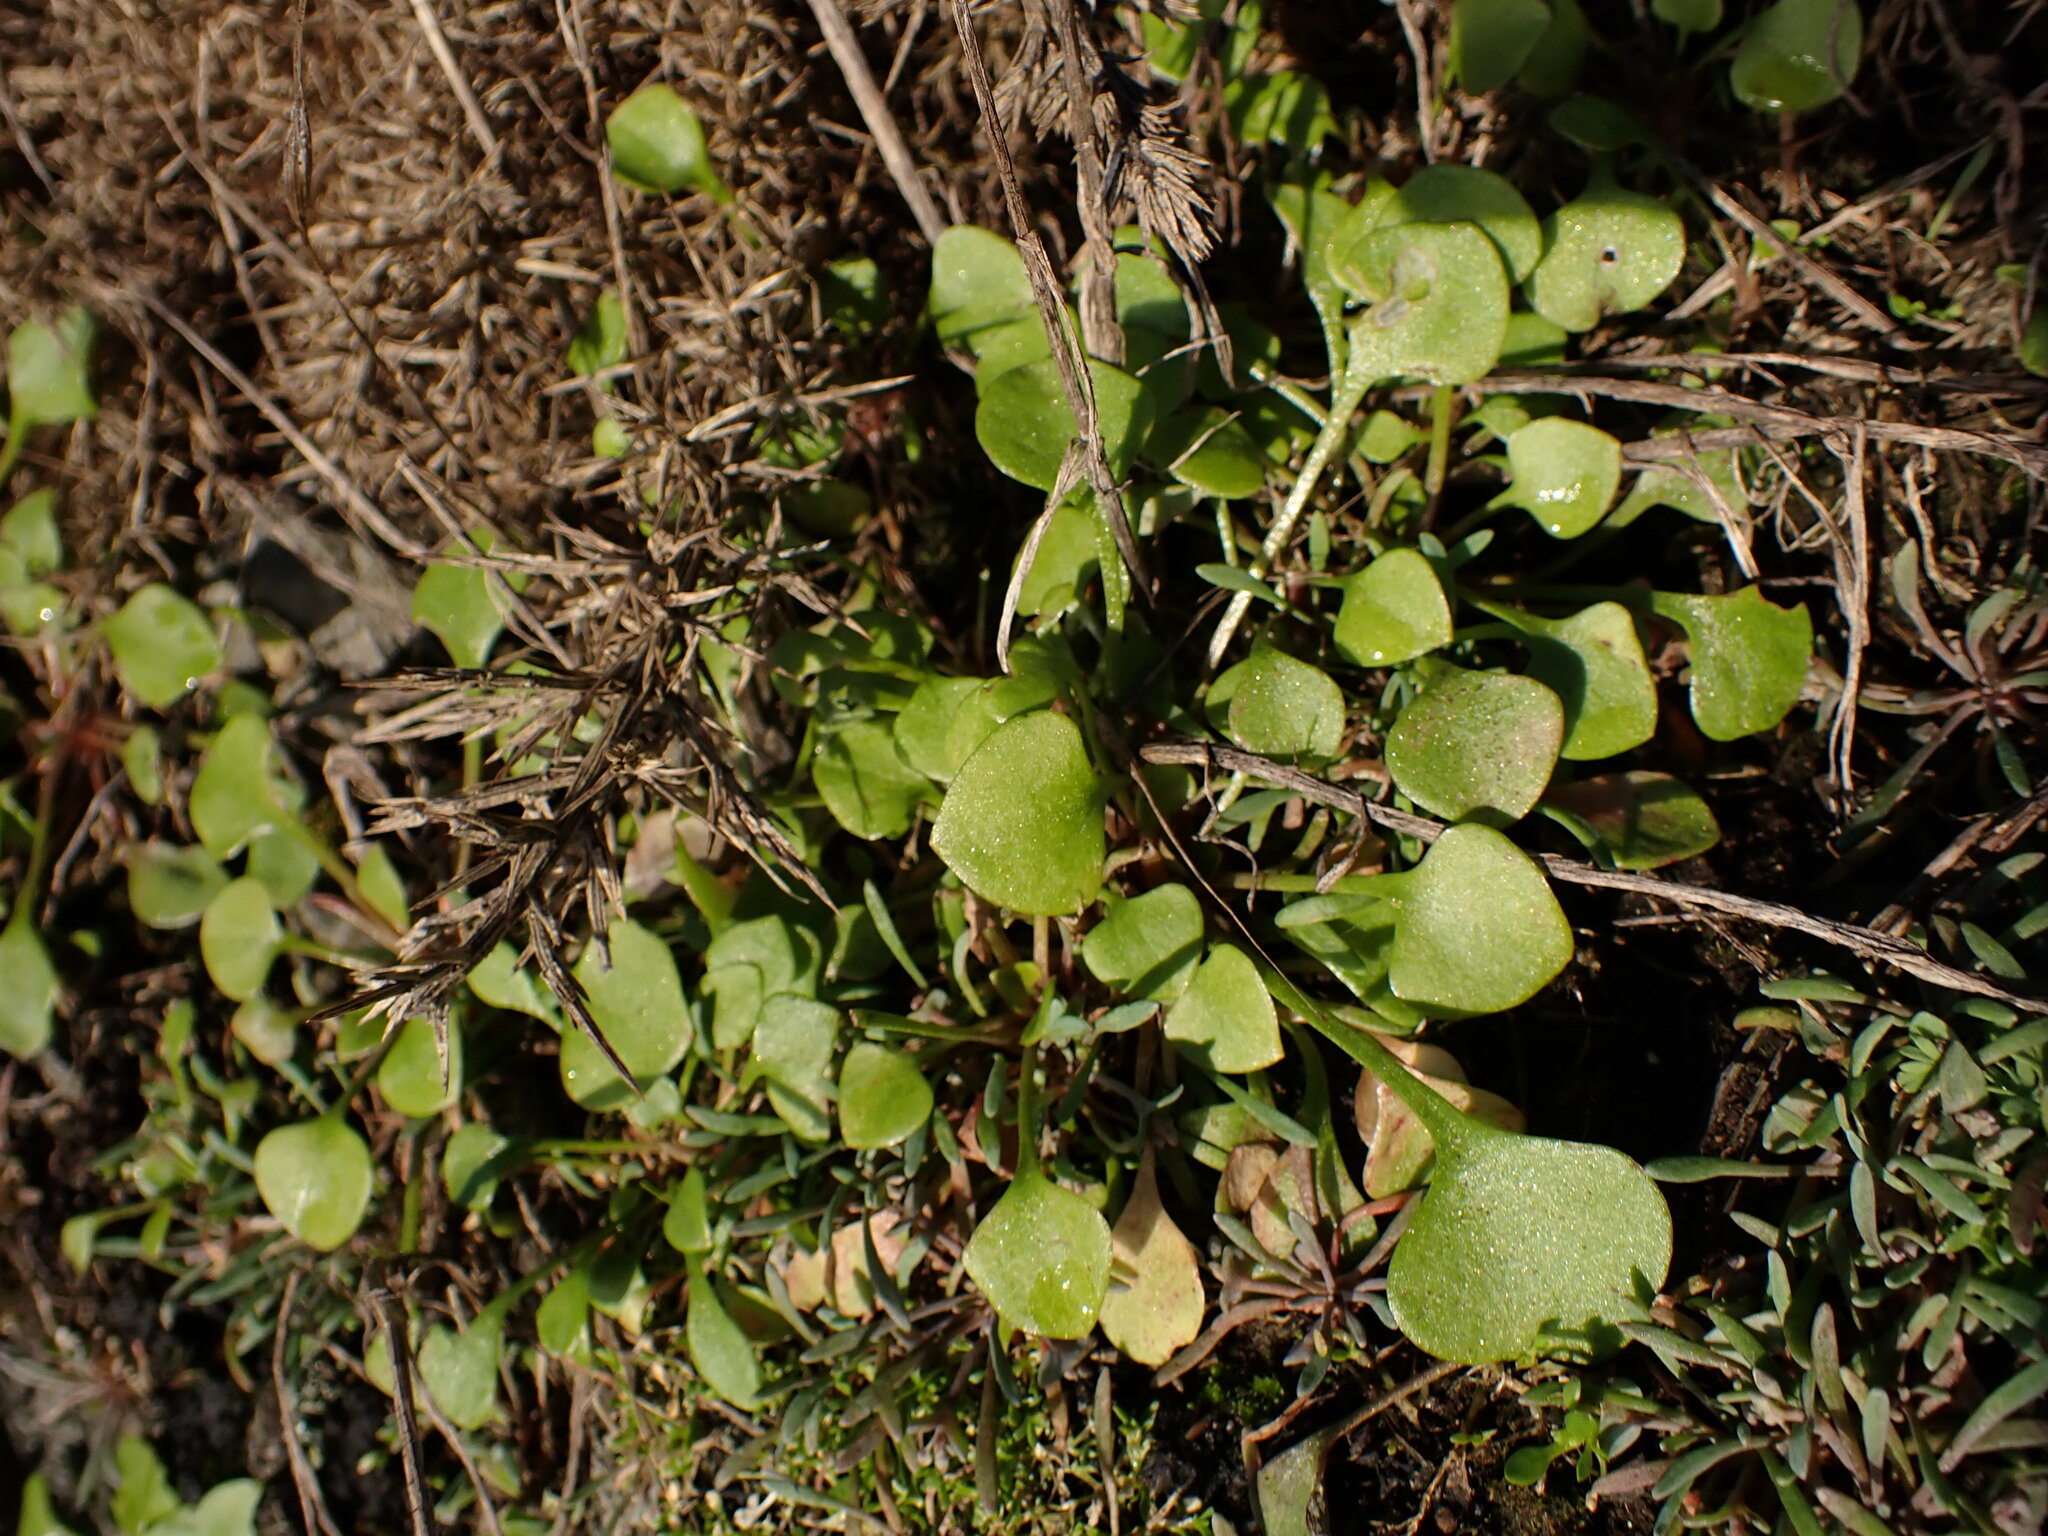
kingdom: Plantae
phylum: Tracheophyta
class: Magnoliopsida
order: Caryophyllales
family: Montiaceae
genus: Claytonia
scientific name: Claytonia perfoliata
